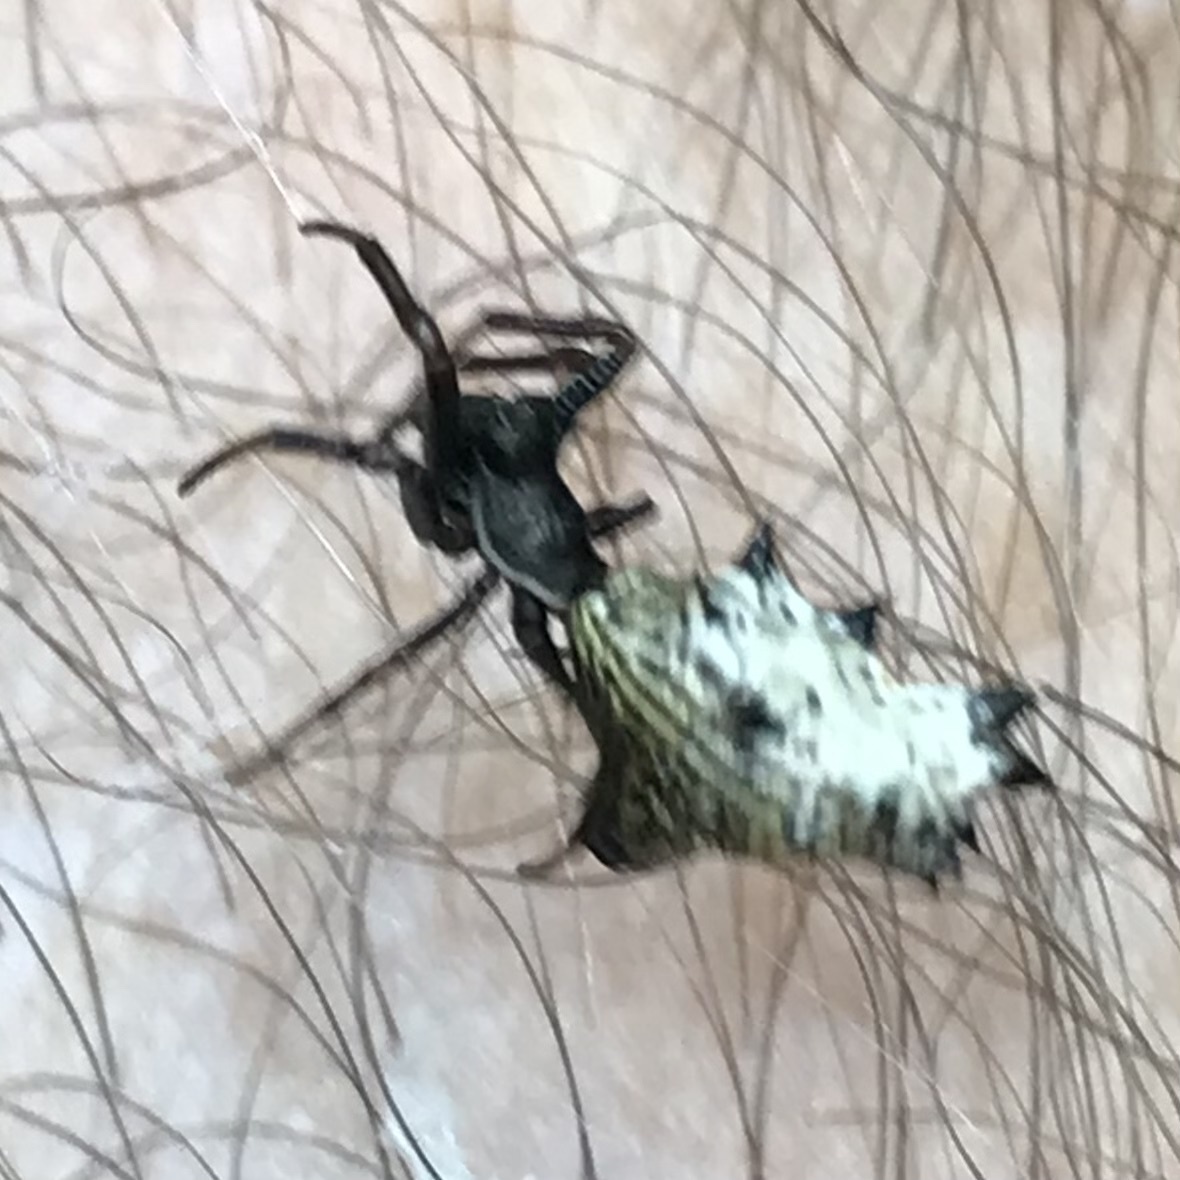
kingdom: Animalia
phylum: Arthropoda
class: Arachnida
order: Araneae
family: Araneidae
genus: Micrathena
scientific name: Micrathena gracilis
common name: Orb weavers
